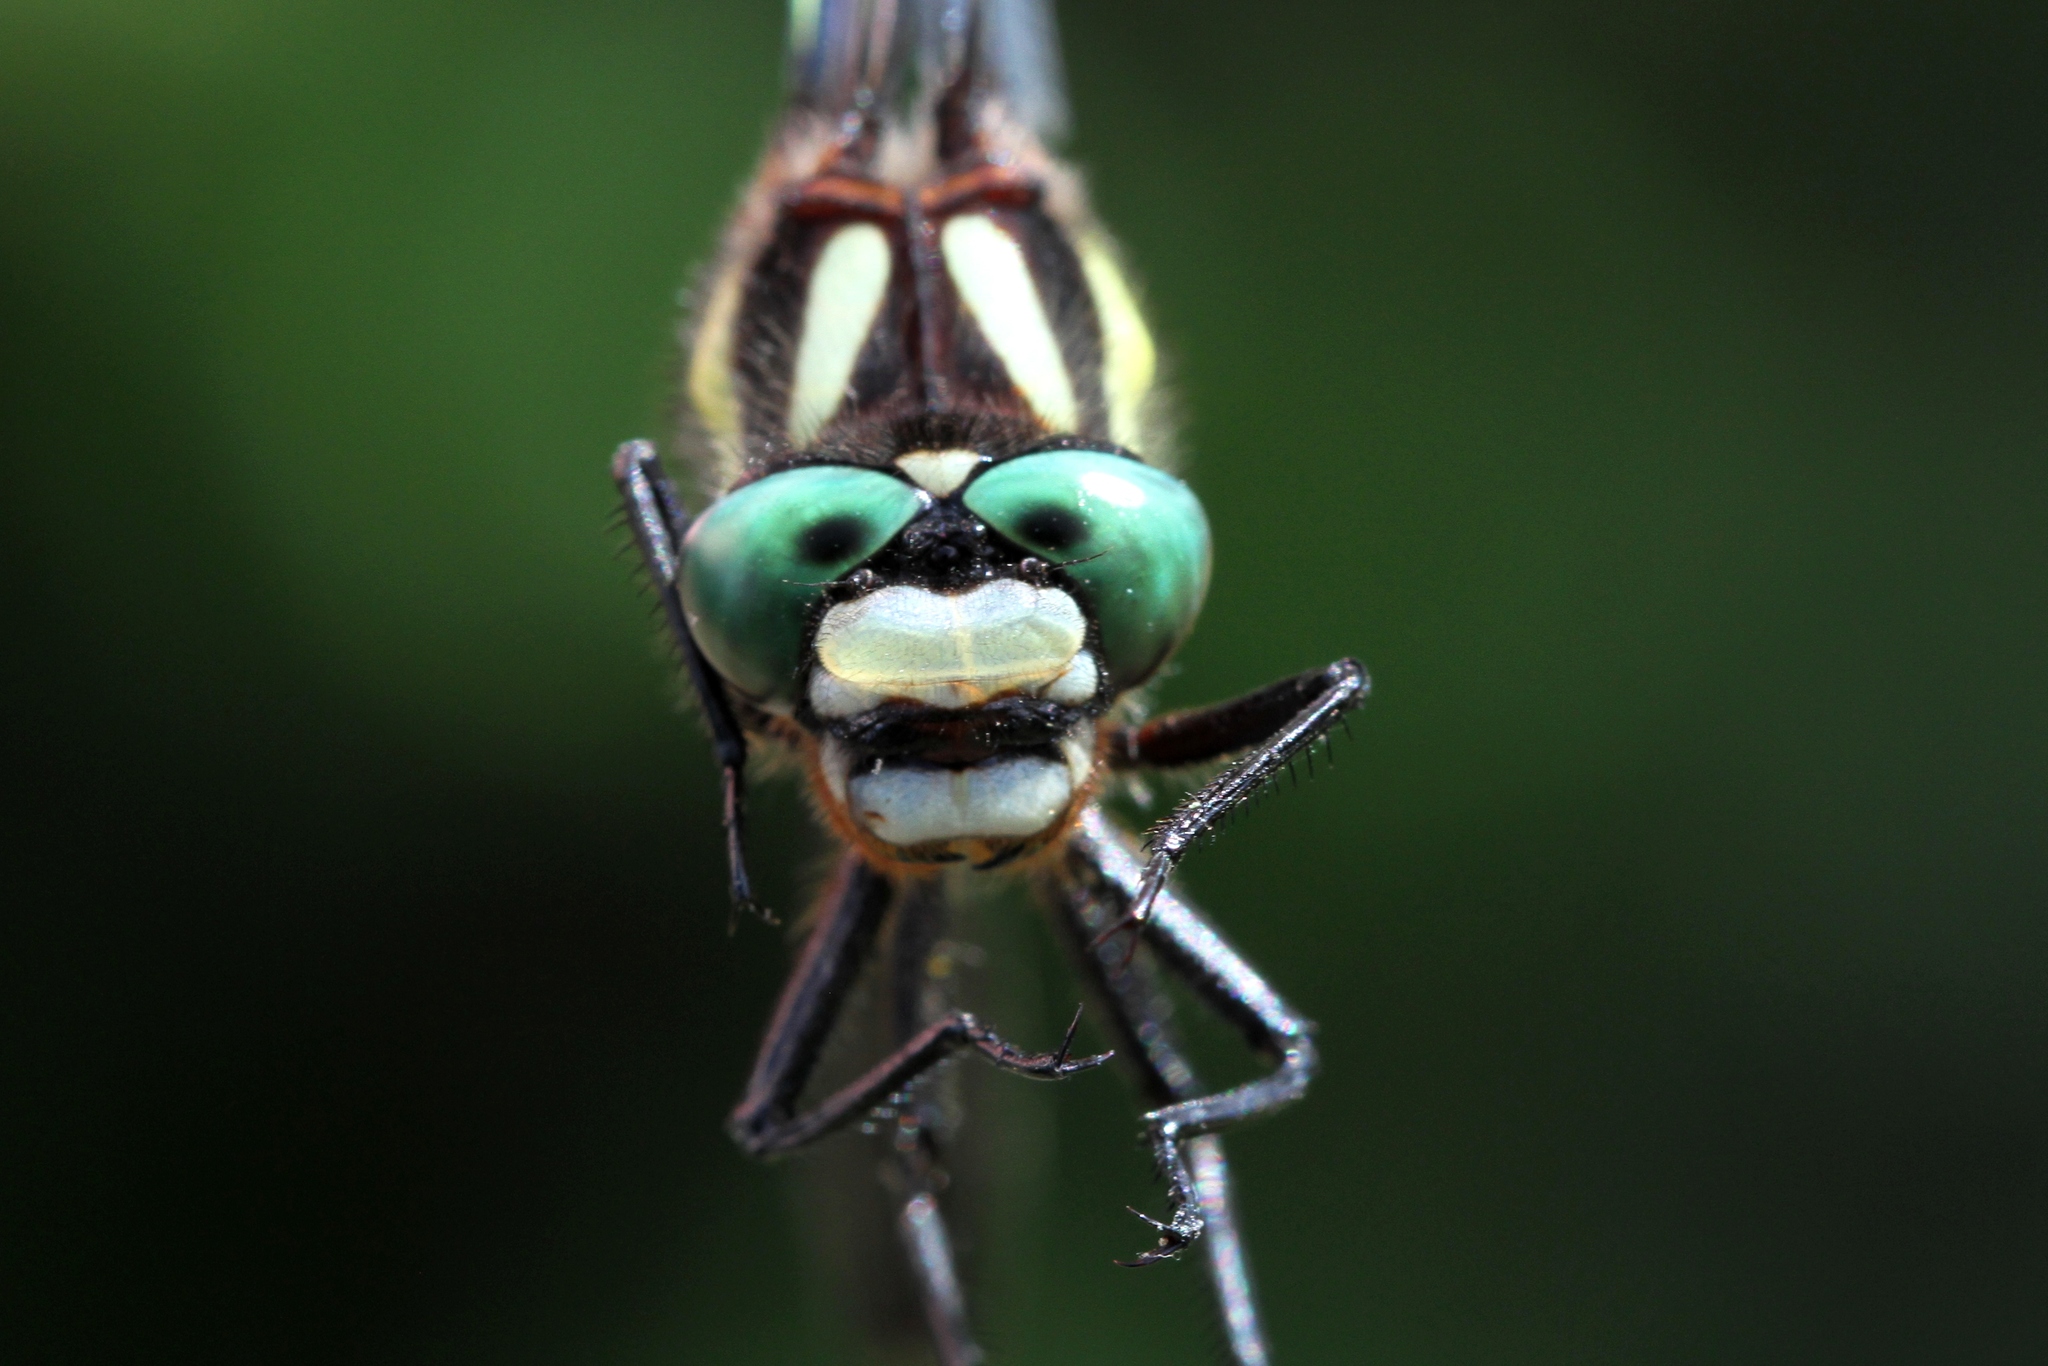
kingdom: Animalia
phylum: Arthropoda
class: Insecta
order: Odonata
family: Cordulegastridae
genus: Cordulegaster
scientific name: Cordulegaster diastatops
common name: Delta-spotted spiketail
